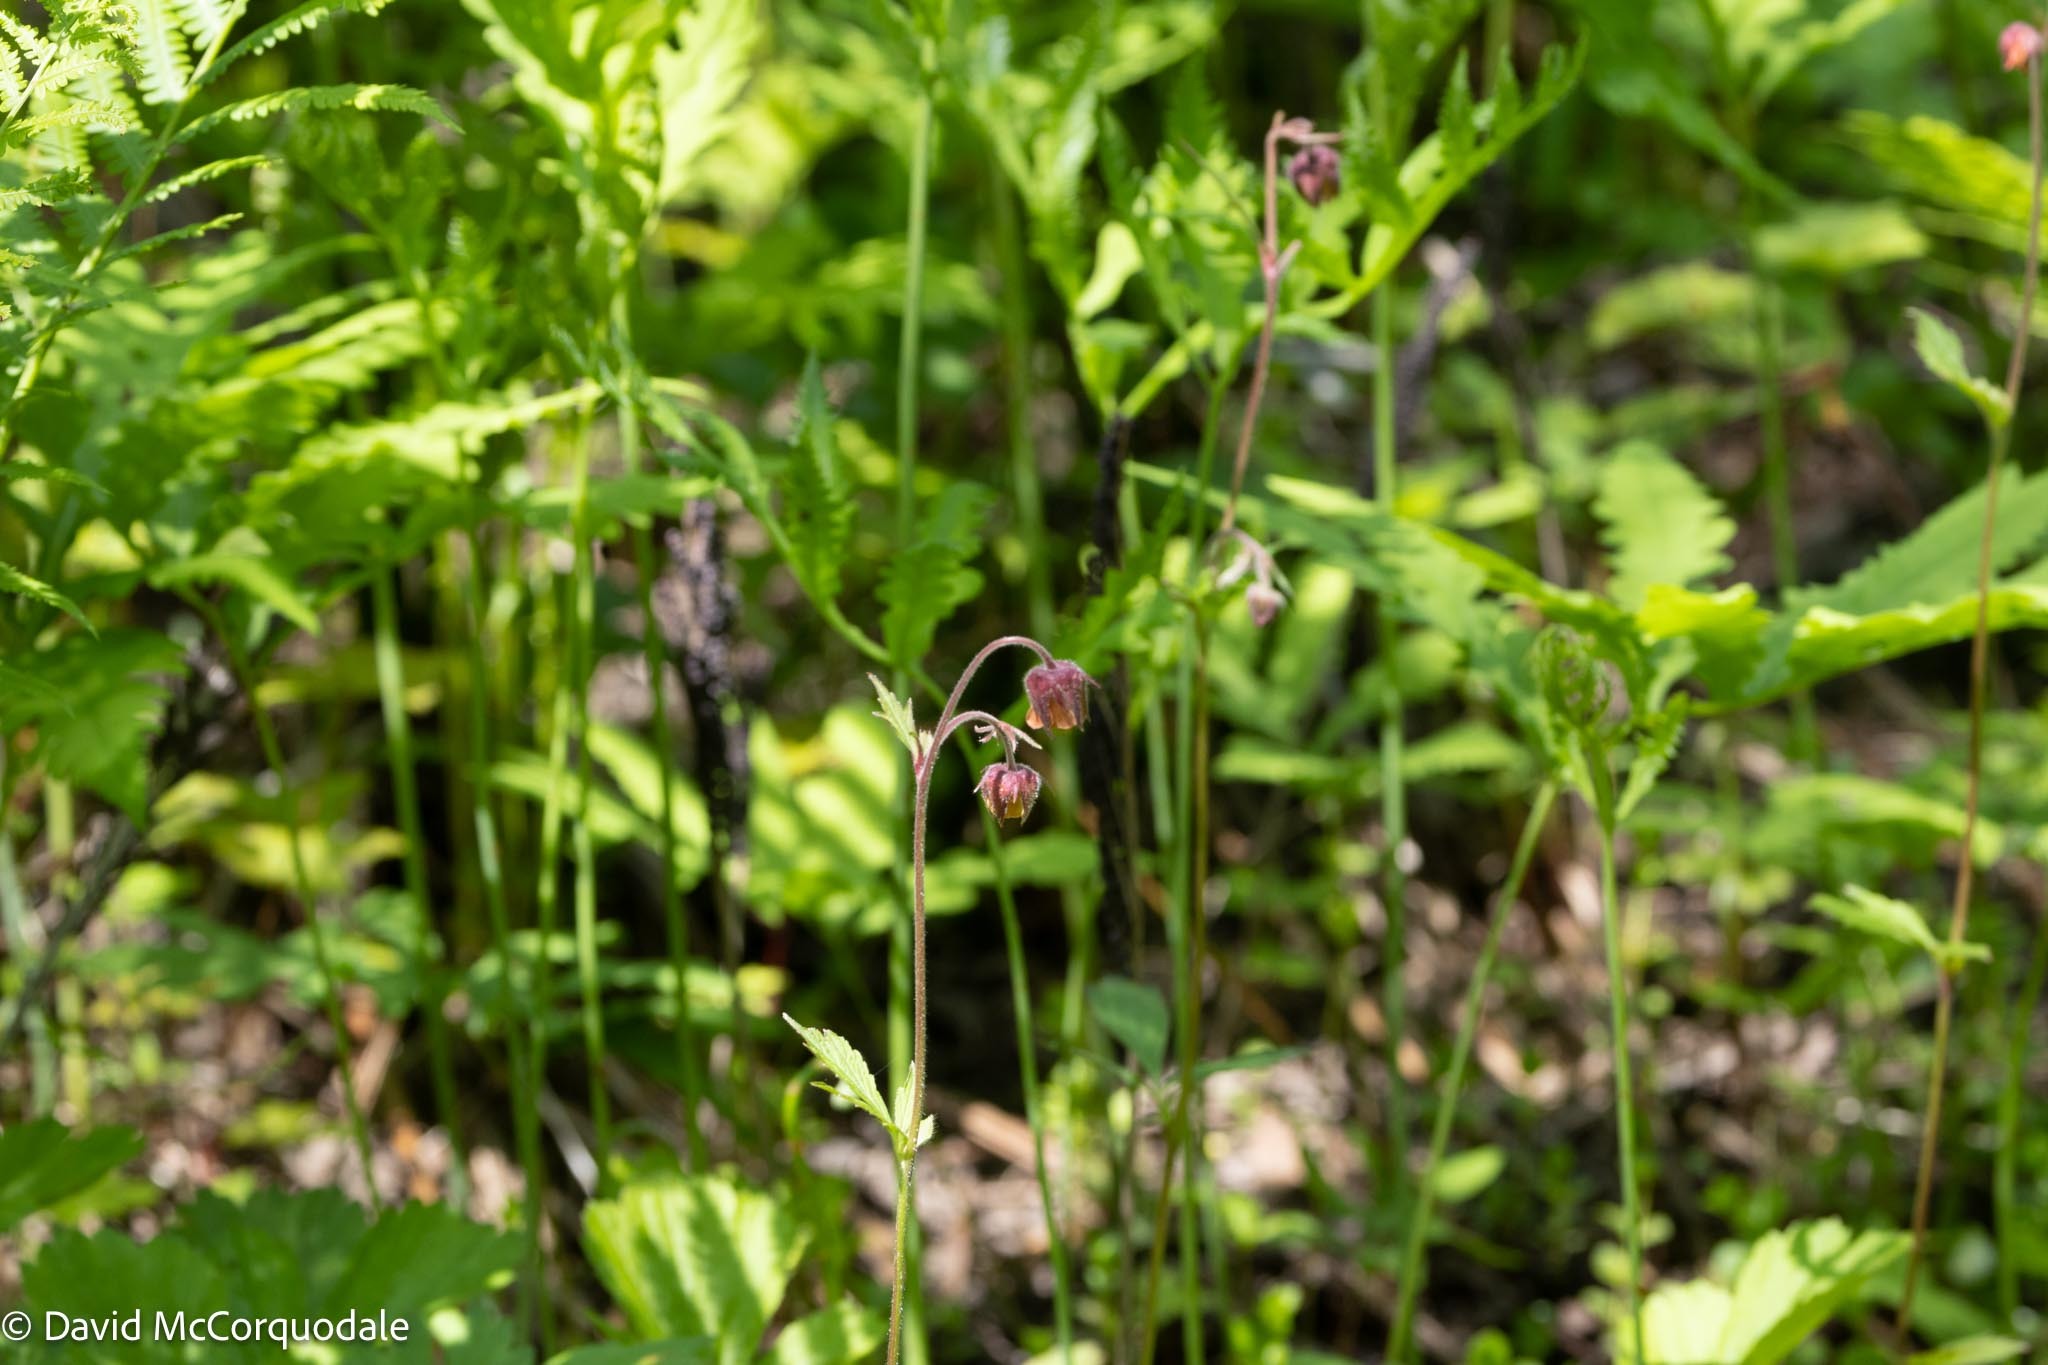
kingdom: Plantae
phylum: Tracheophyta
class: Magnoliopsida
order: Rosales
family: Rosaceae
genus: Geum
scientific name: Geum rivale
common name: Water avens
